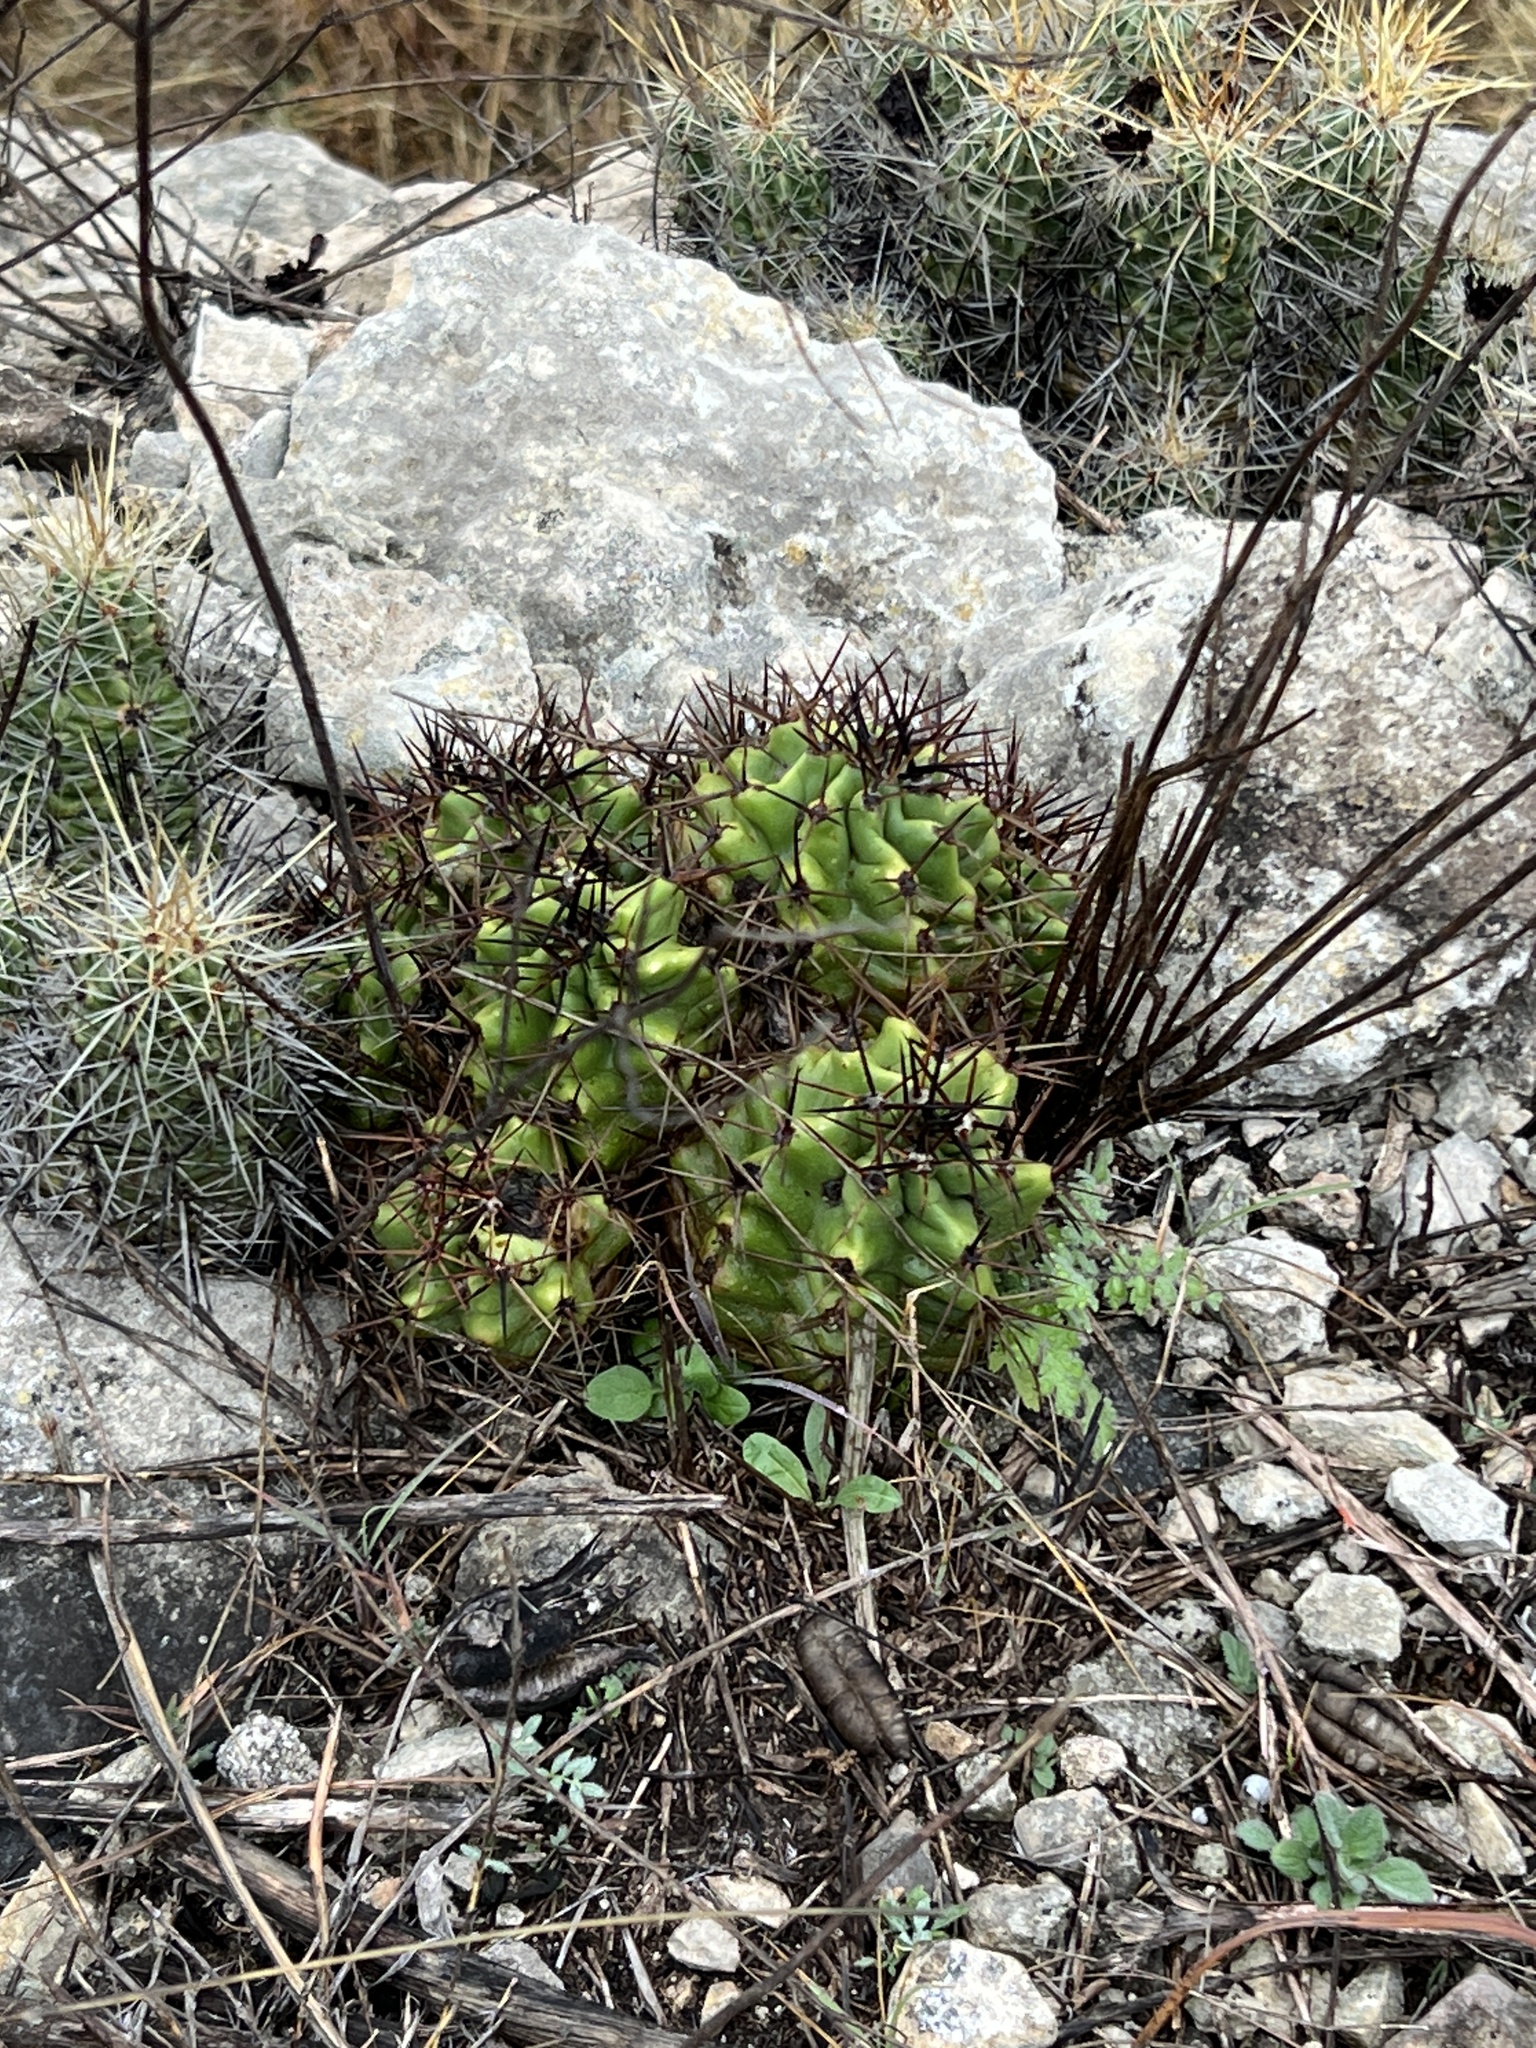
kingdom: Plantae
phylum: Tracheophyta
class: Magnoliopsida
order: Caryophyllales
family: Cactaceae
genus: Echinocereus
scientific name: Echinocereus coccineus
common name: Scarlet hedgehog cactus
